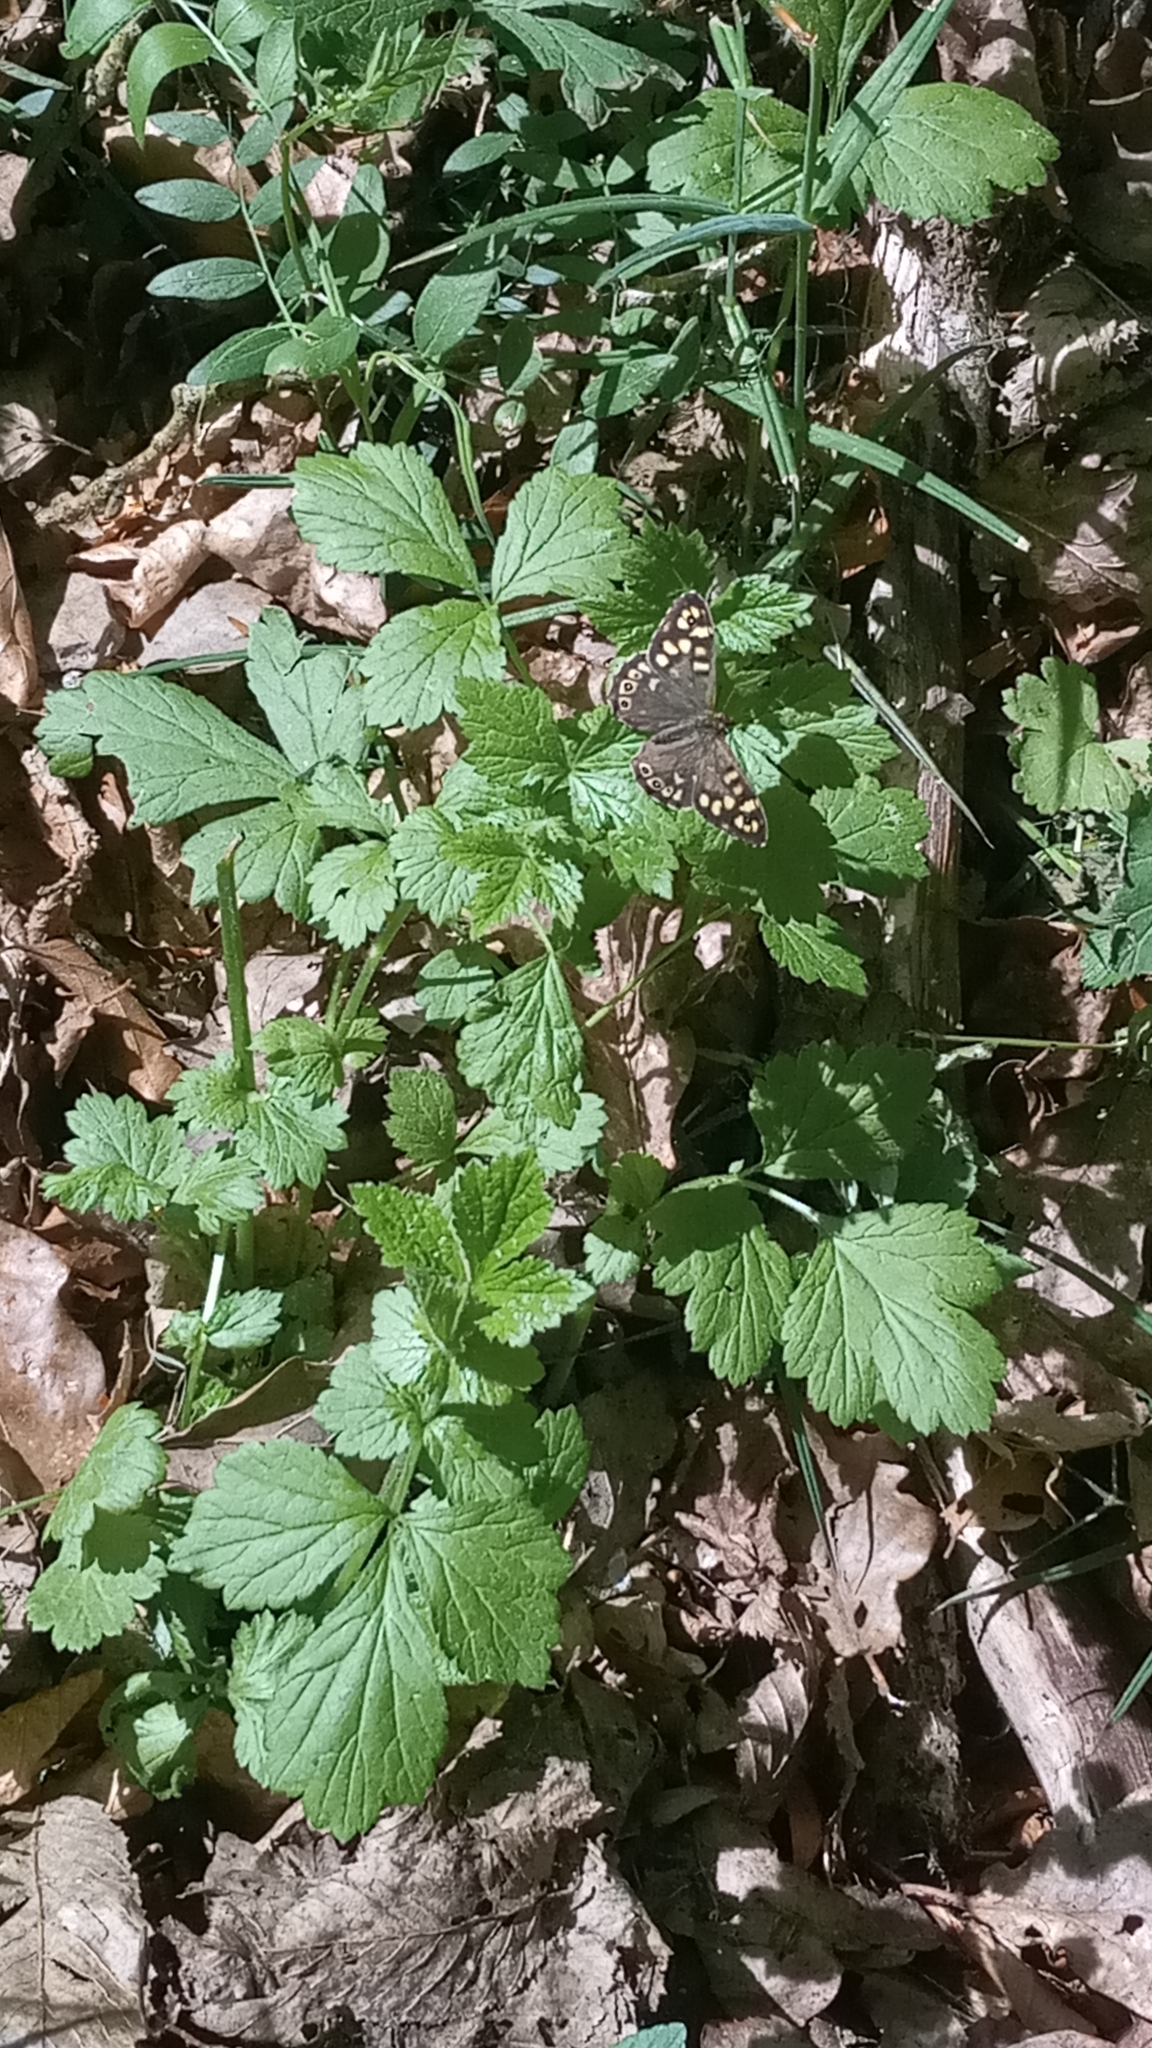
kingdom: Animalia
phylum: Arthropoda
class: Insecta
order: Lepidoptera
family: Nymphalidae
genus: Pararge
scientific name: Pararge aegeria
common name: Speckled wood
